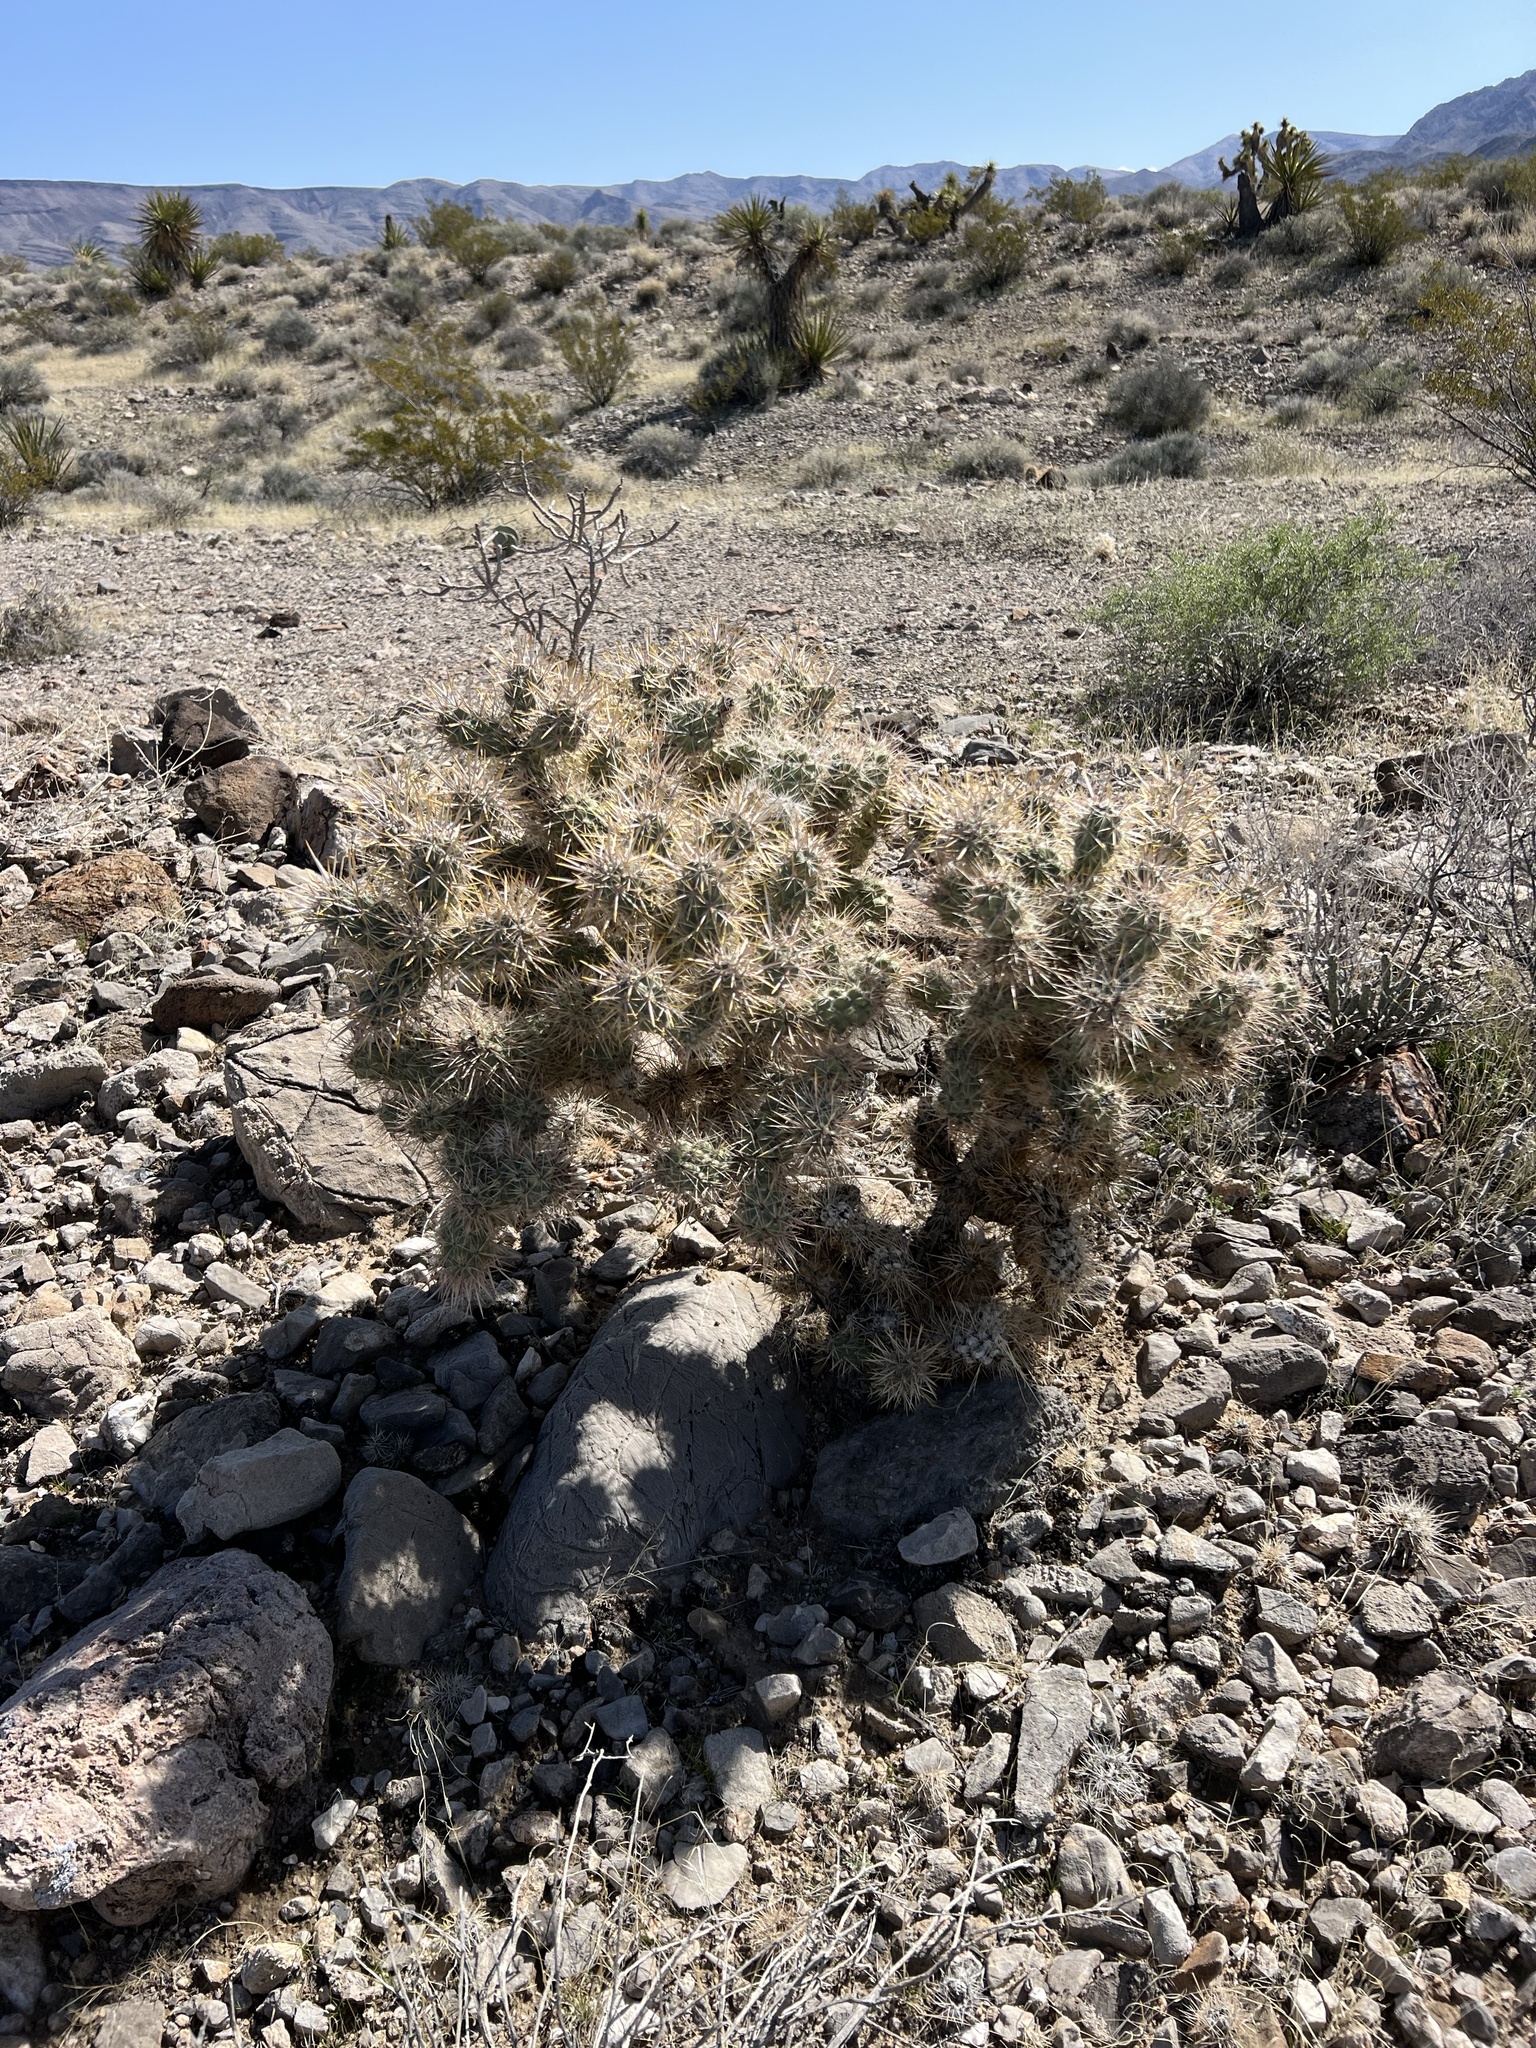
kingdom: Plantae
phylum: Tracheophyta
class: Magnoliopsida
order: Caryophyllales
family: Cactaceae
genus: Cylindropuntia
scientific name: Cylindropuntia echinocarpa
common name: Ground cholla
